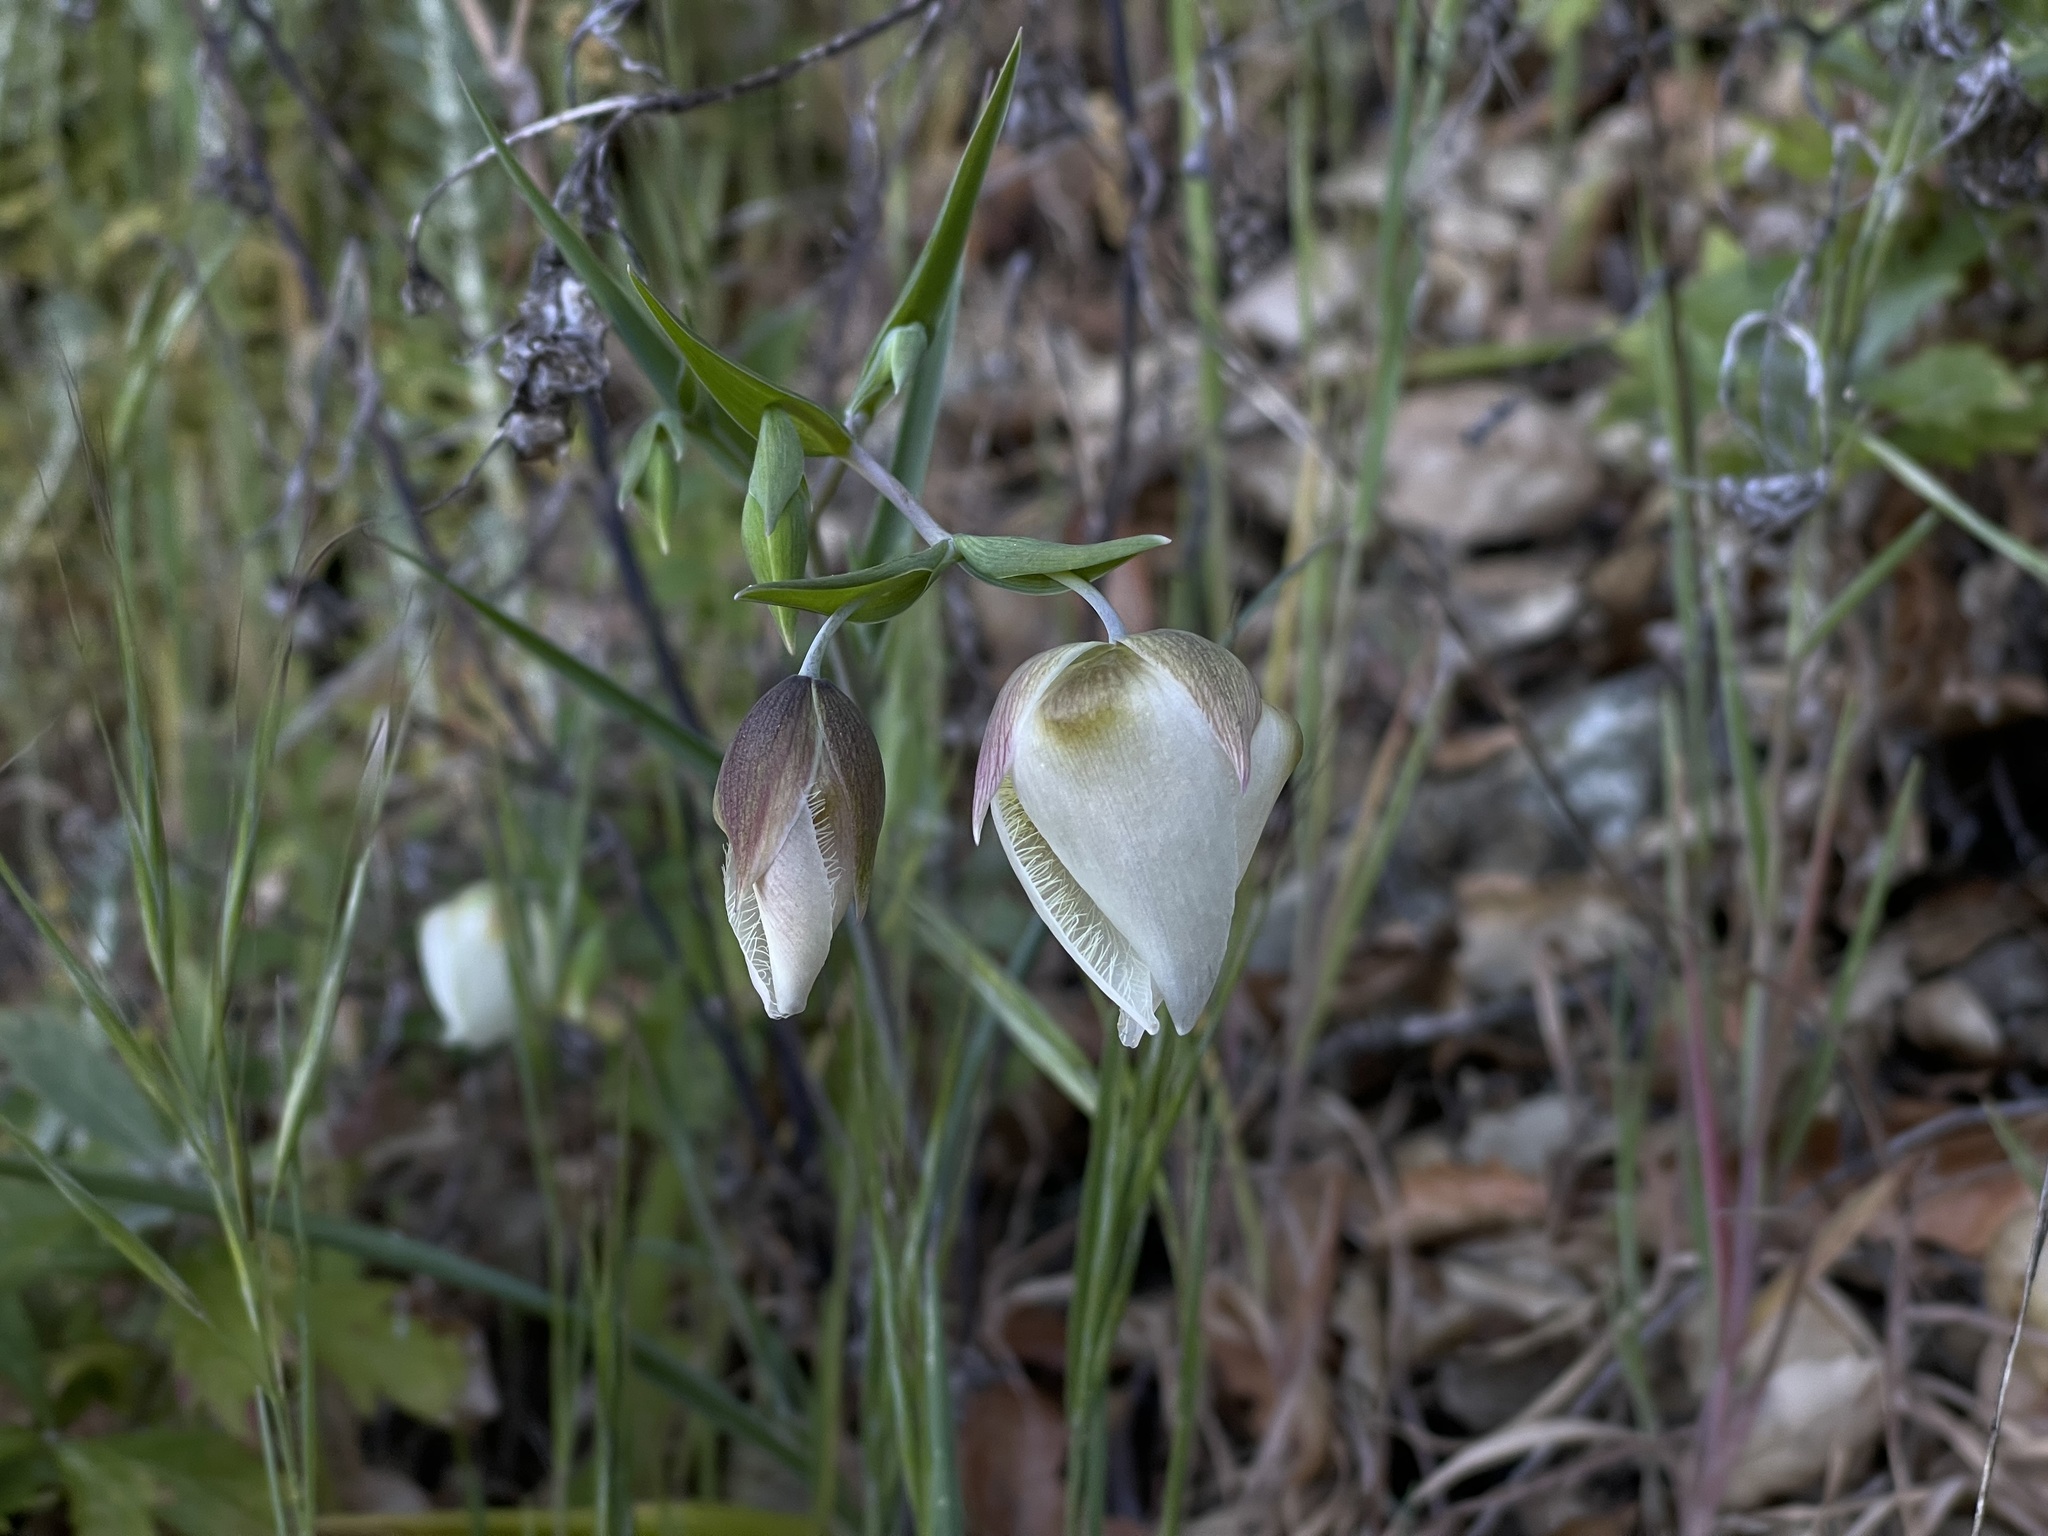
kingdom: Plantae
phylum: Tracheophyta
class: Liliopsida
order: Liliales
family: Liliaceae
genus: Calochortus
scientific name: Calochortus albus
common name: Fairy-lantern
